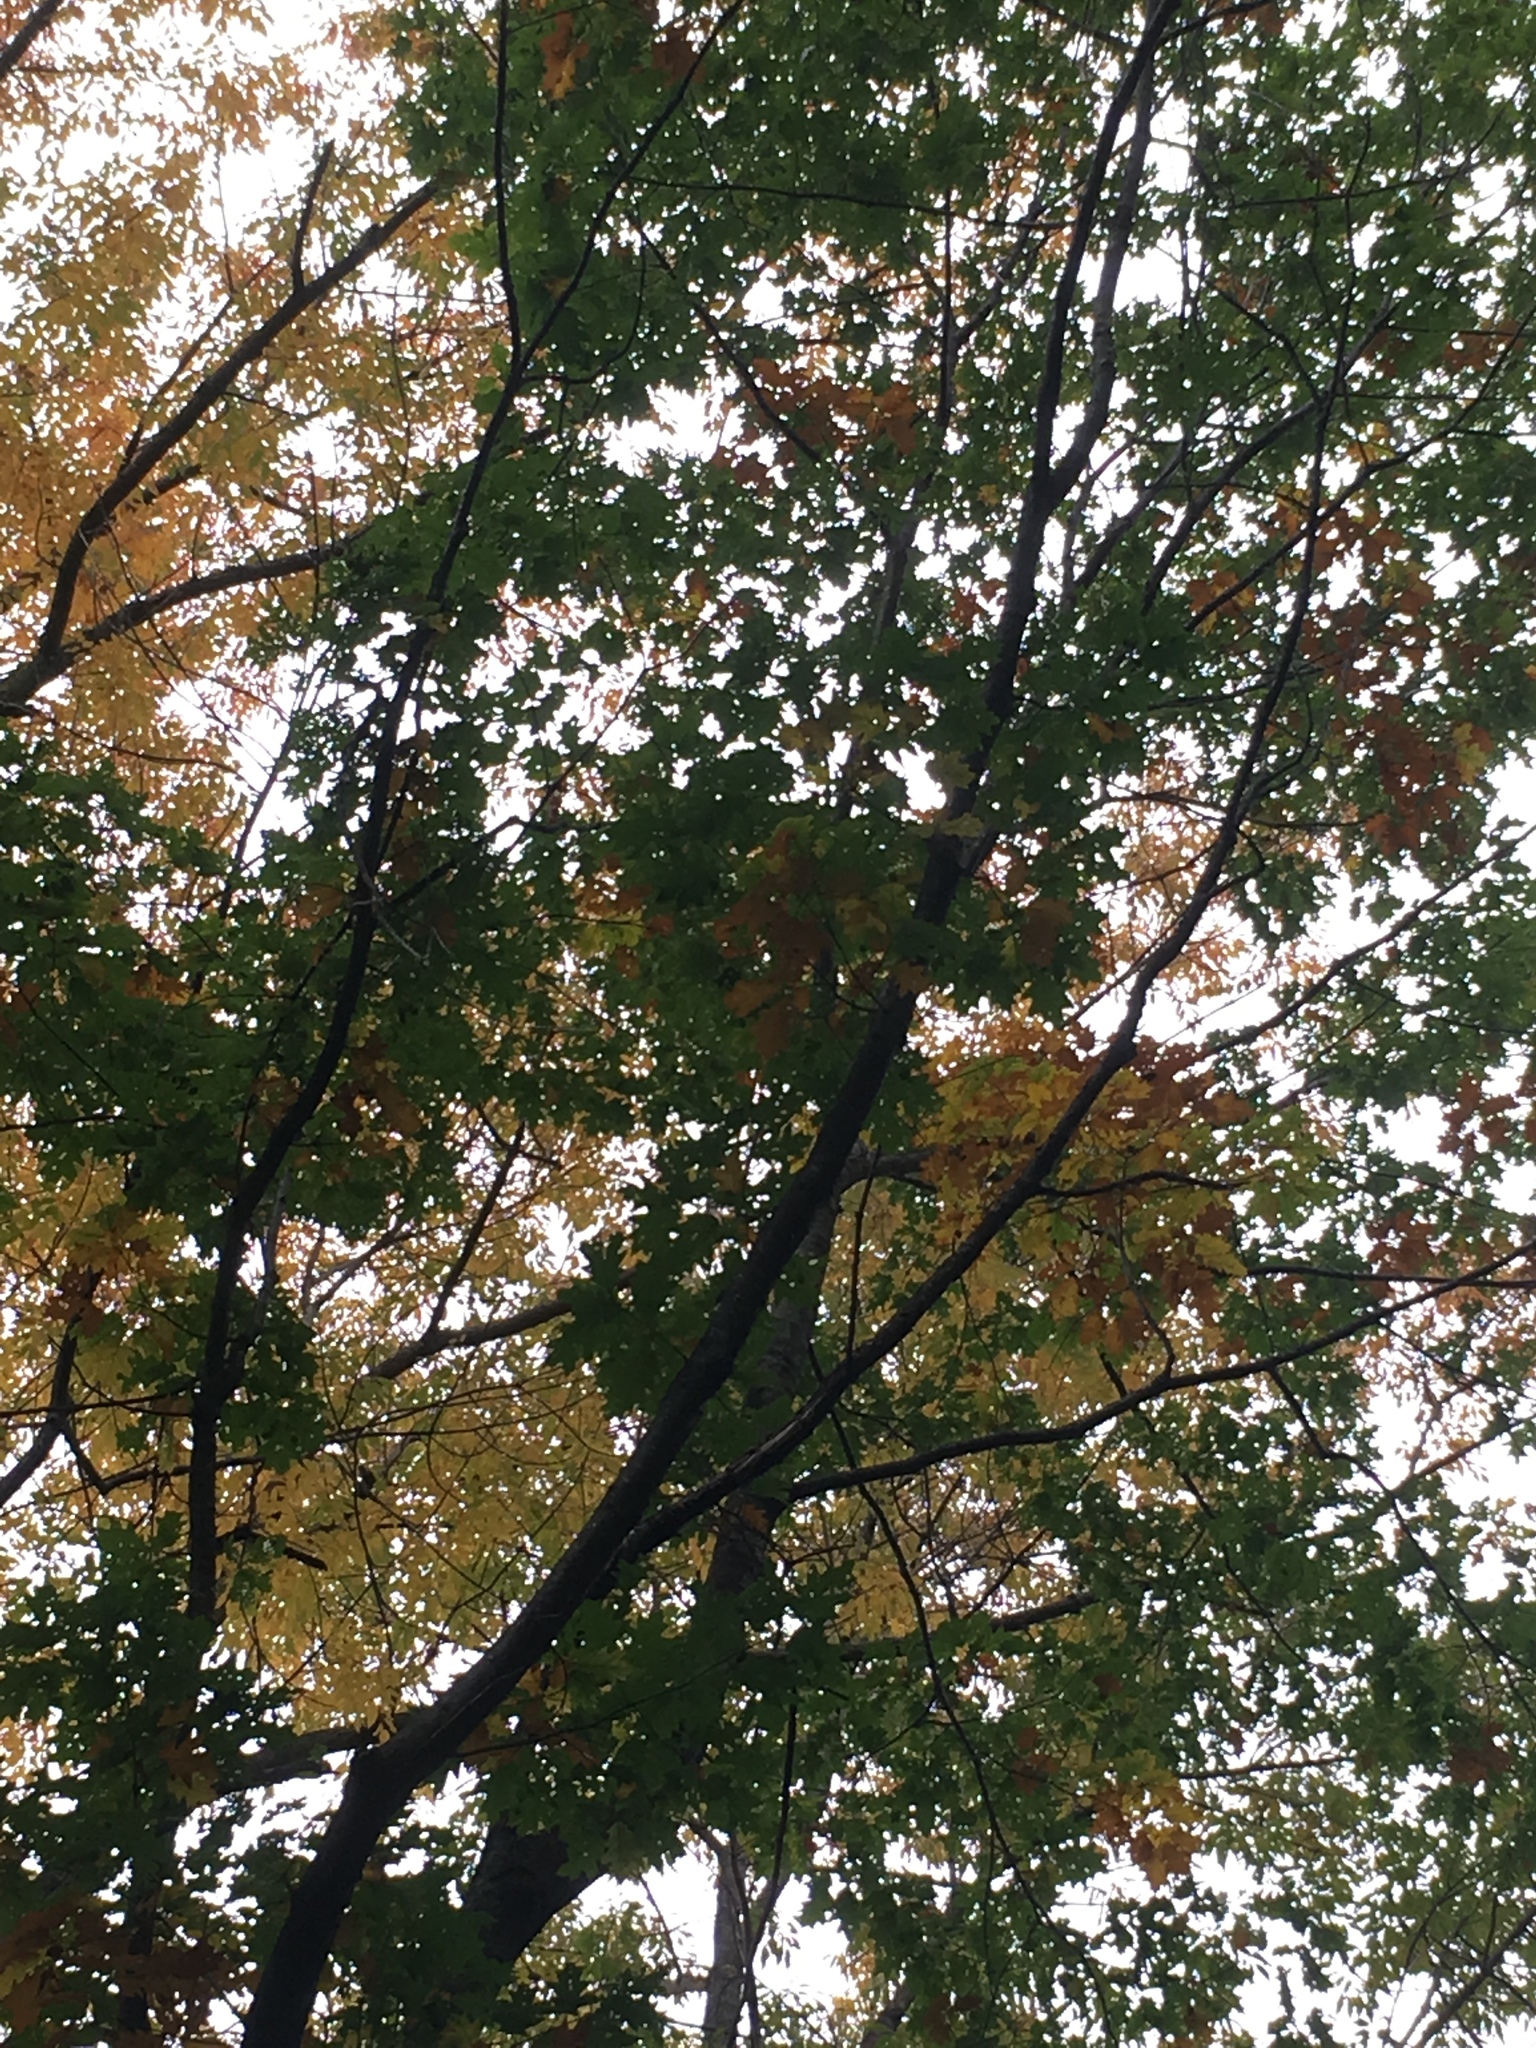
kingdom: Plantae
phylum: Tracheophyta
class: Magnoliopsida
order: Fagales
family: Fagaceae
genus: Quercus
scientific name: Quercus rubra
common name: Red oak
